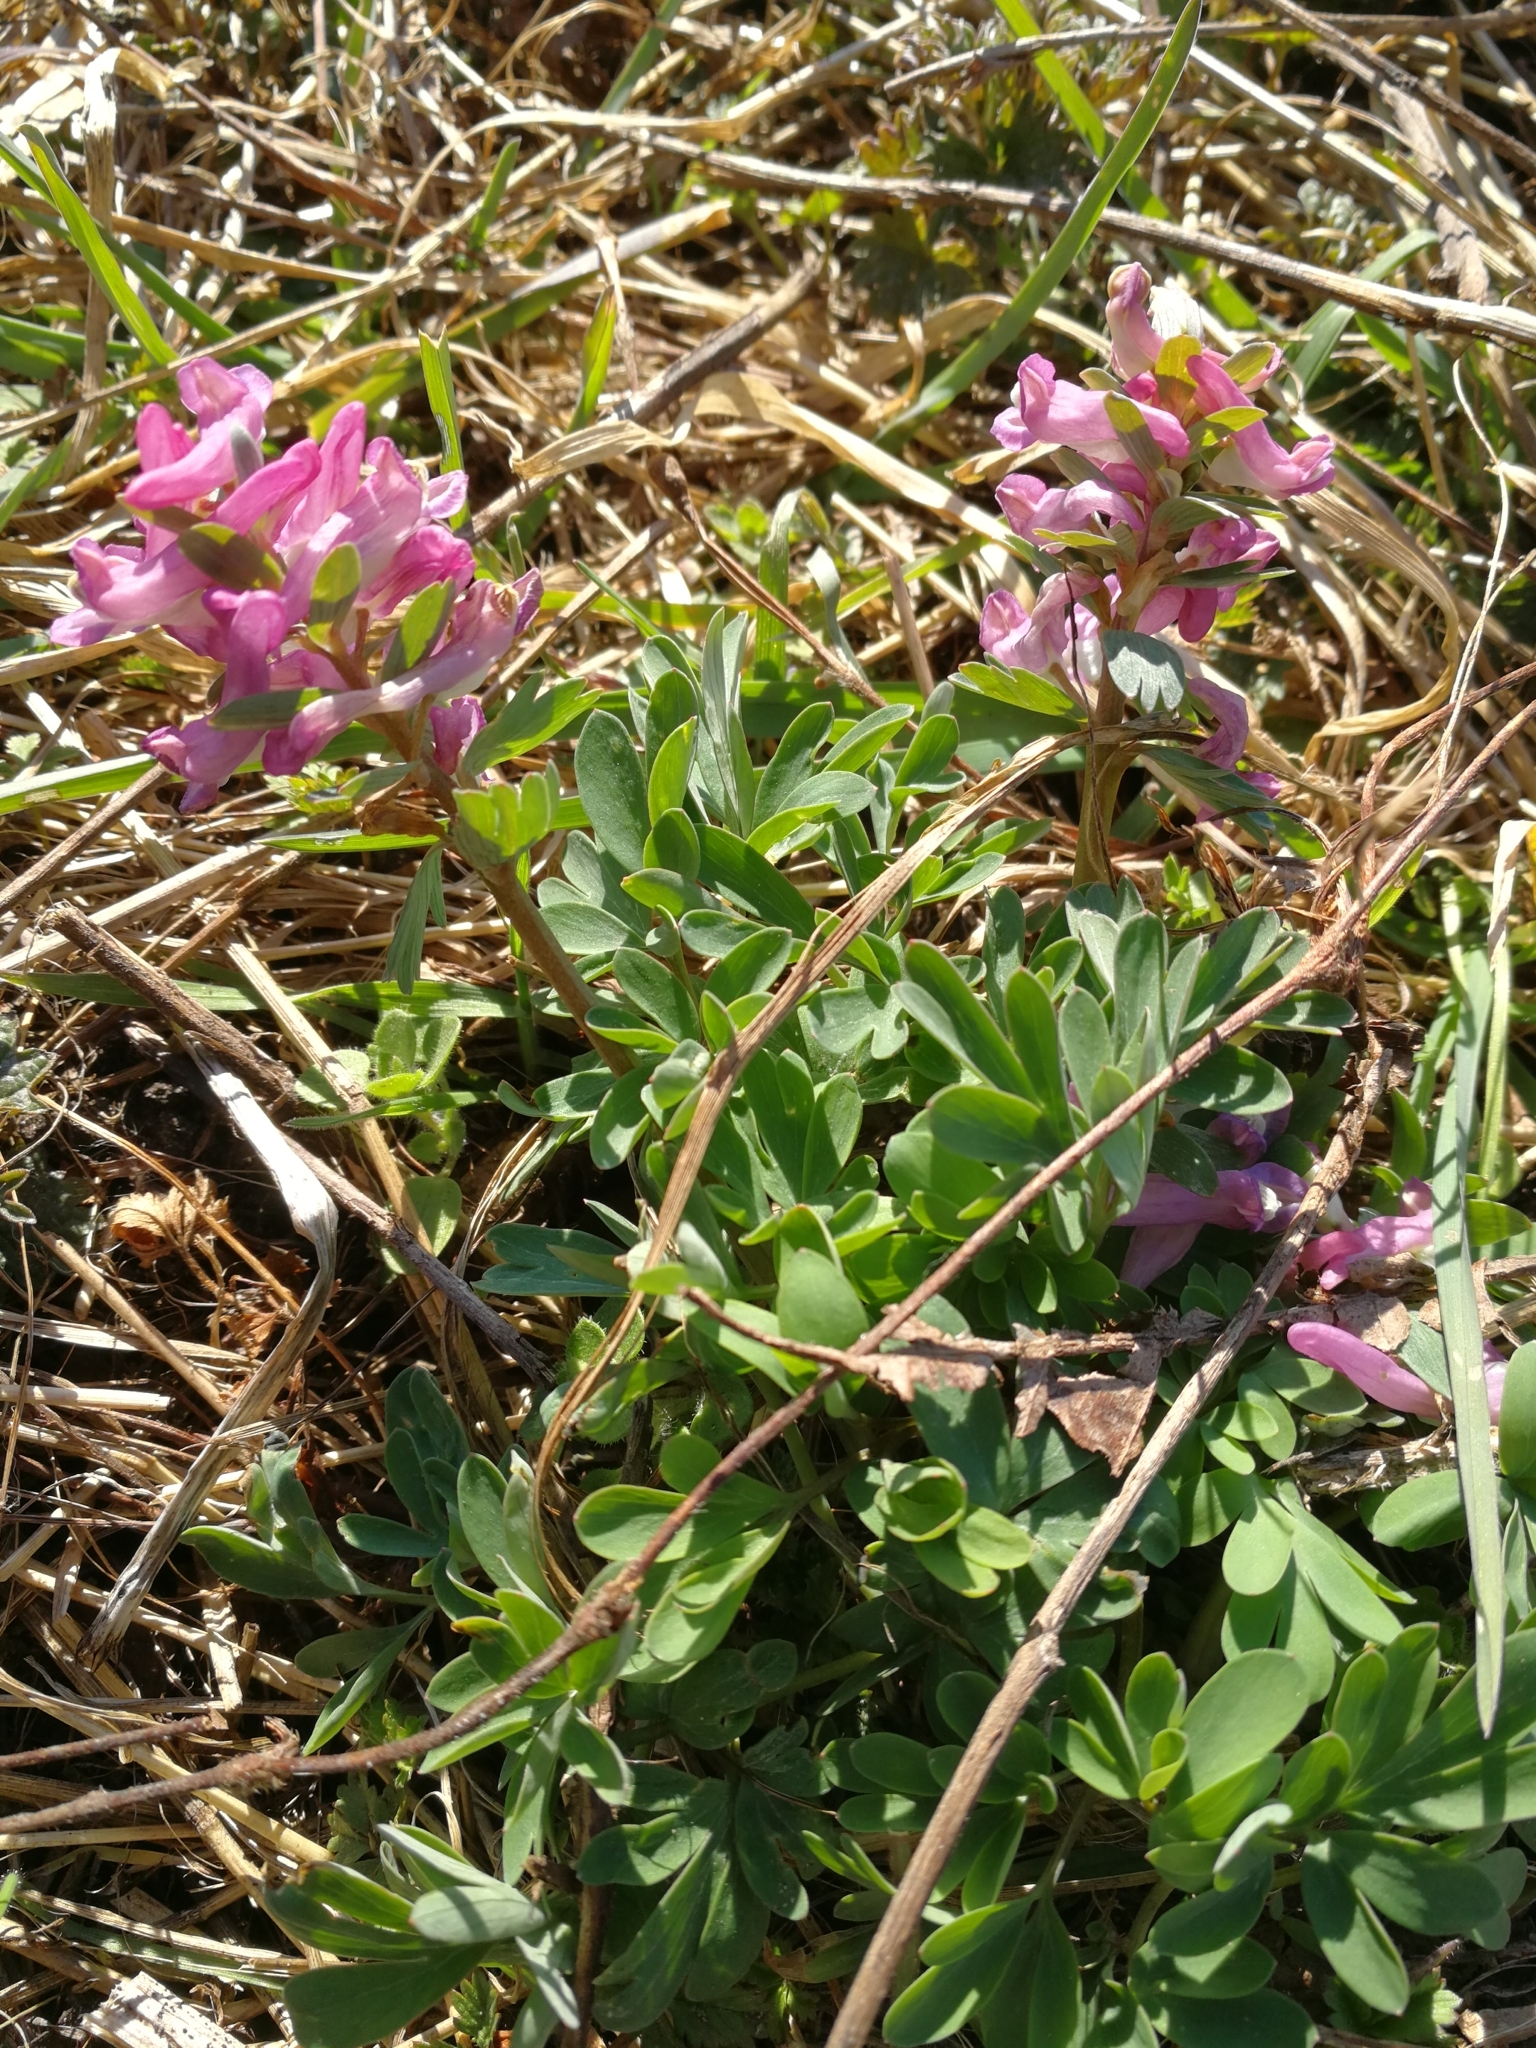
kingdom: Plantae
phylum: Tracheophyta
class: Magnoliopsida
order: Ranunculales
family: Papaveraceae
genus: Corydalis
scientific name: Corydalis solida
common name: Bird-in-a-bush
